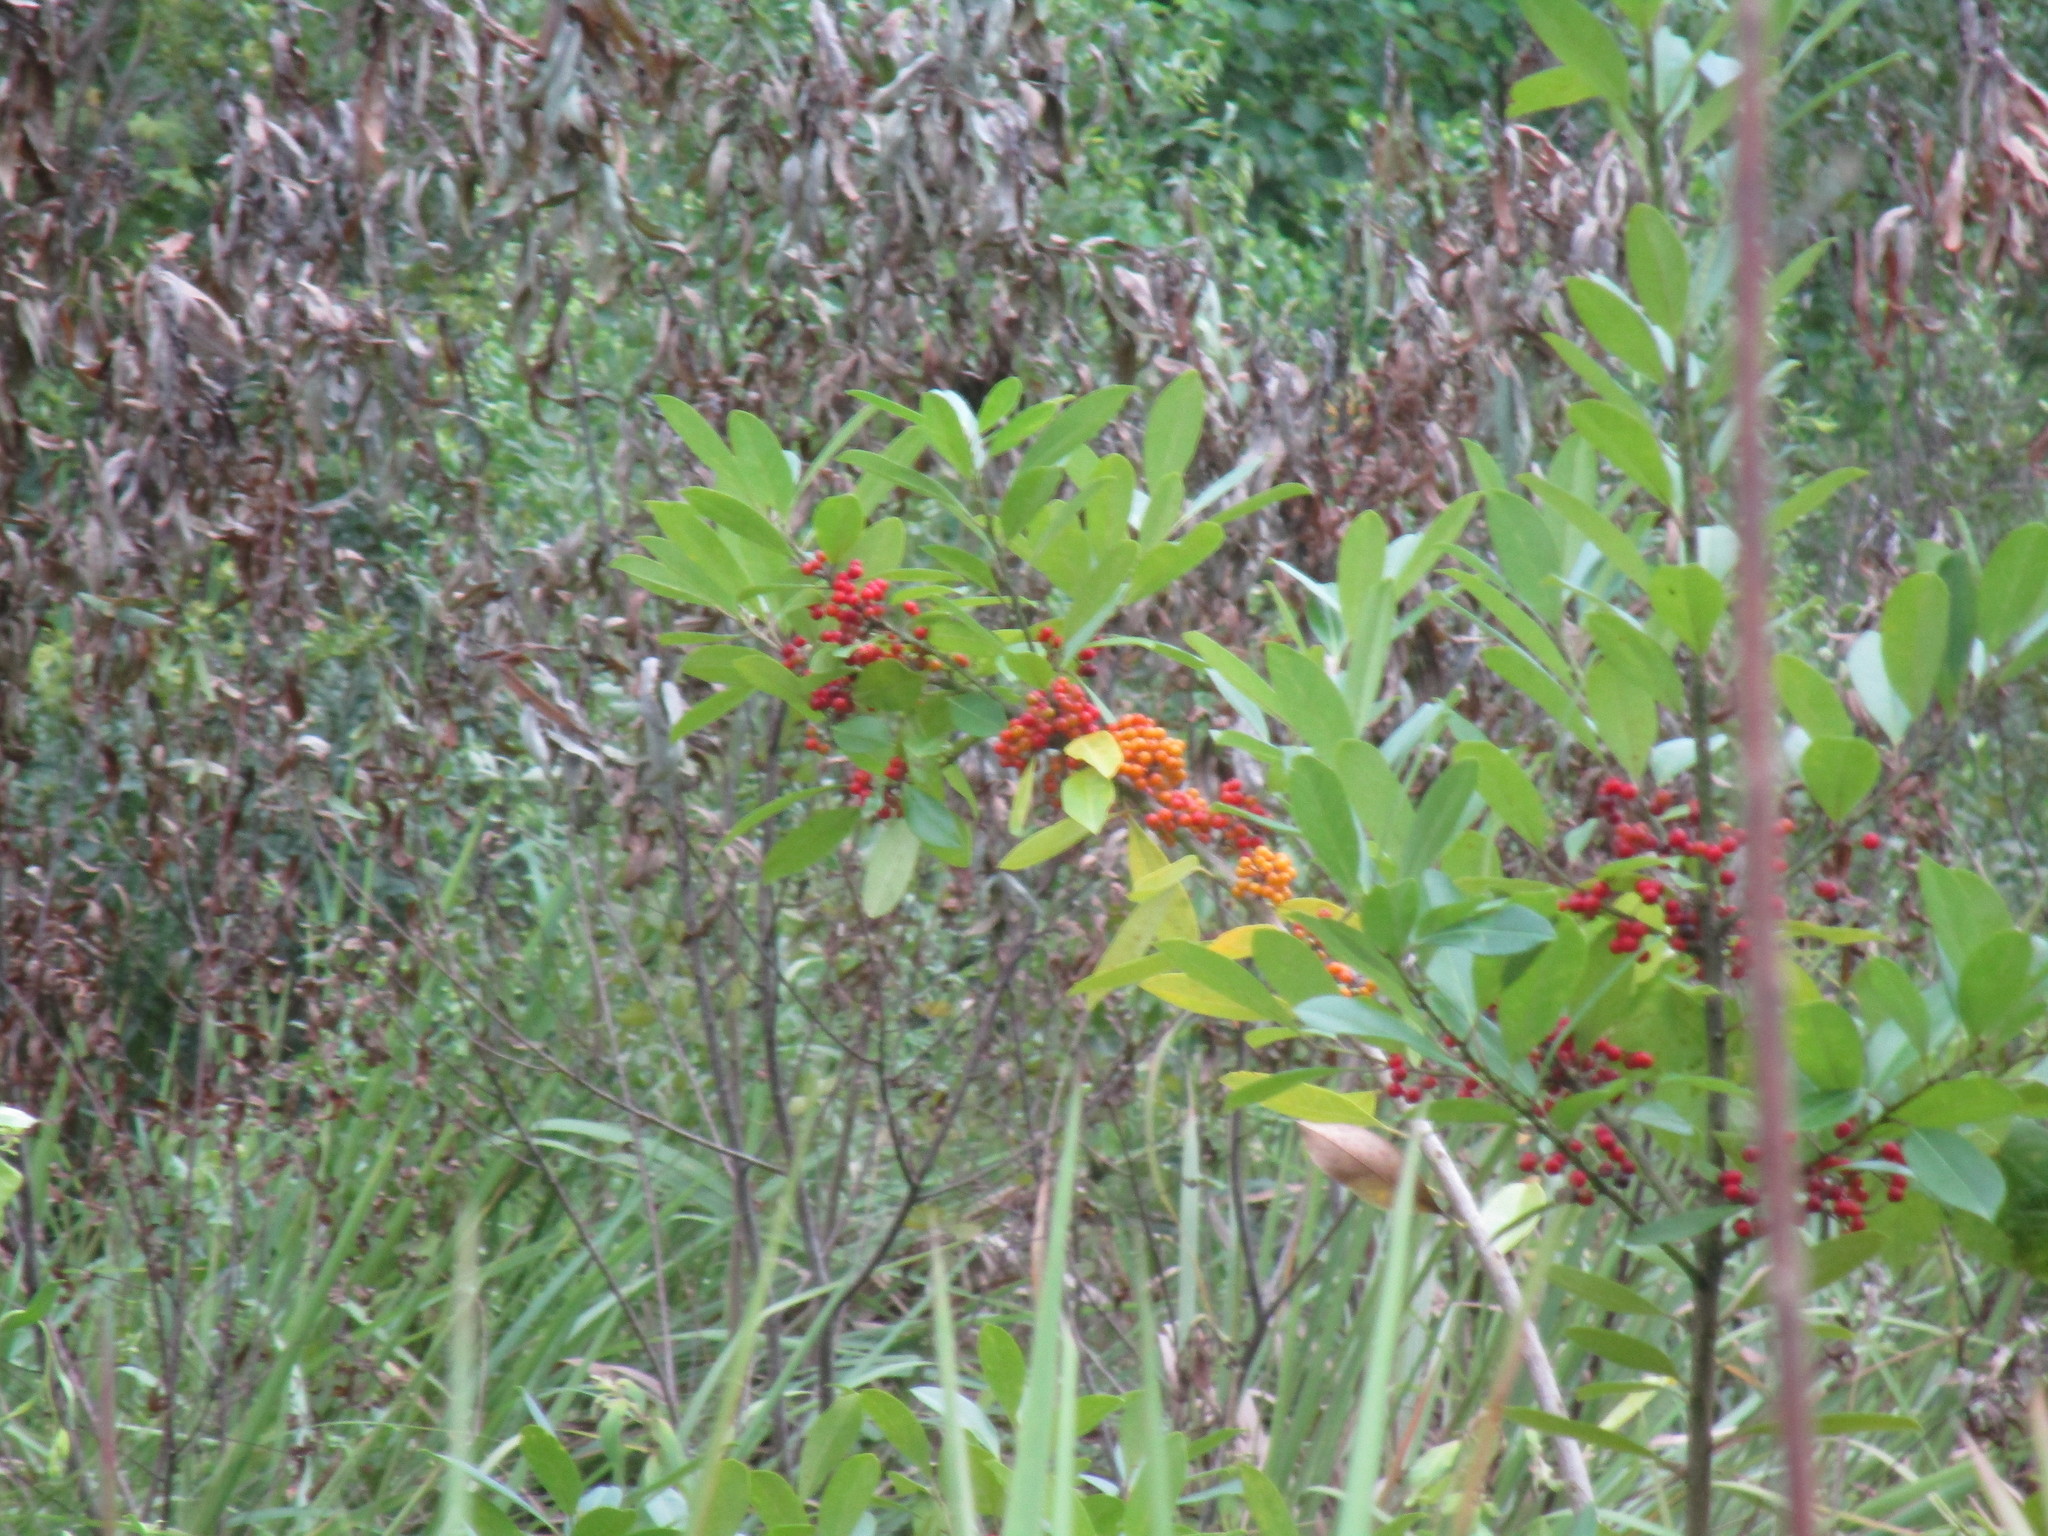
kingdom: Plantae
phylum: Tracheophyta
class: Magnoliopsida
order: Aquifoliales
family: Aquifoliaceae
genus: Ilex
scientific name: Ilex cassine
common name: Dahoon
